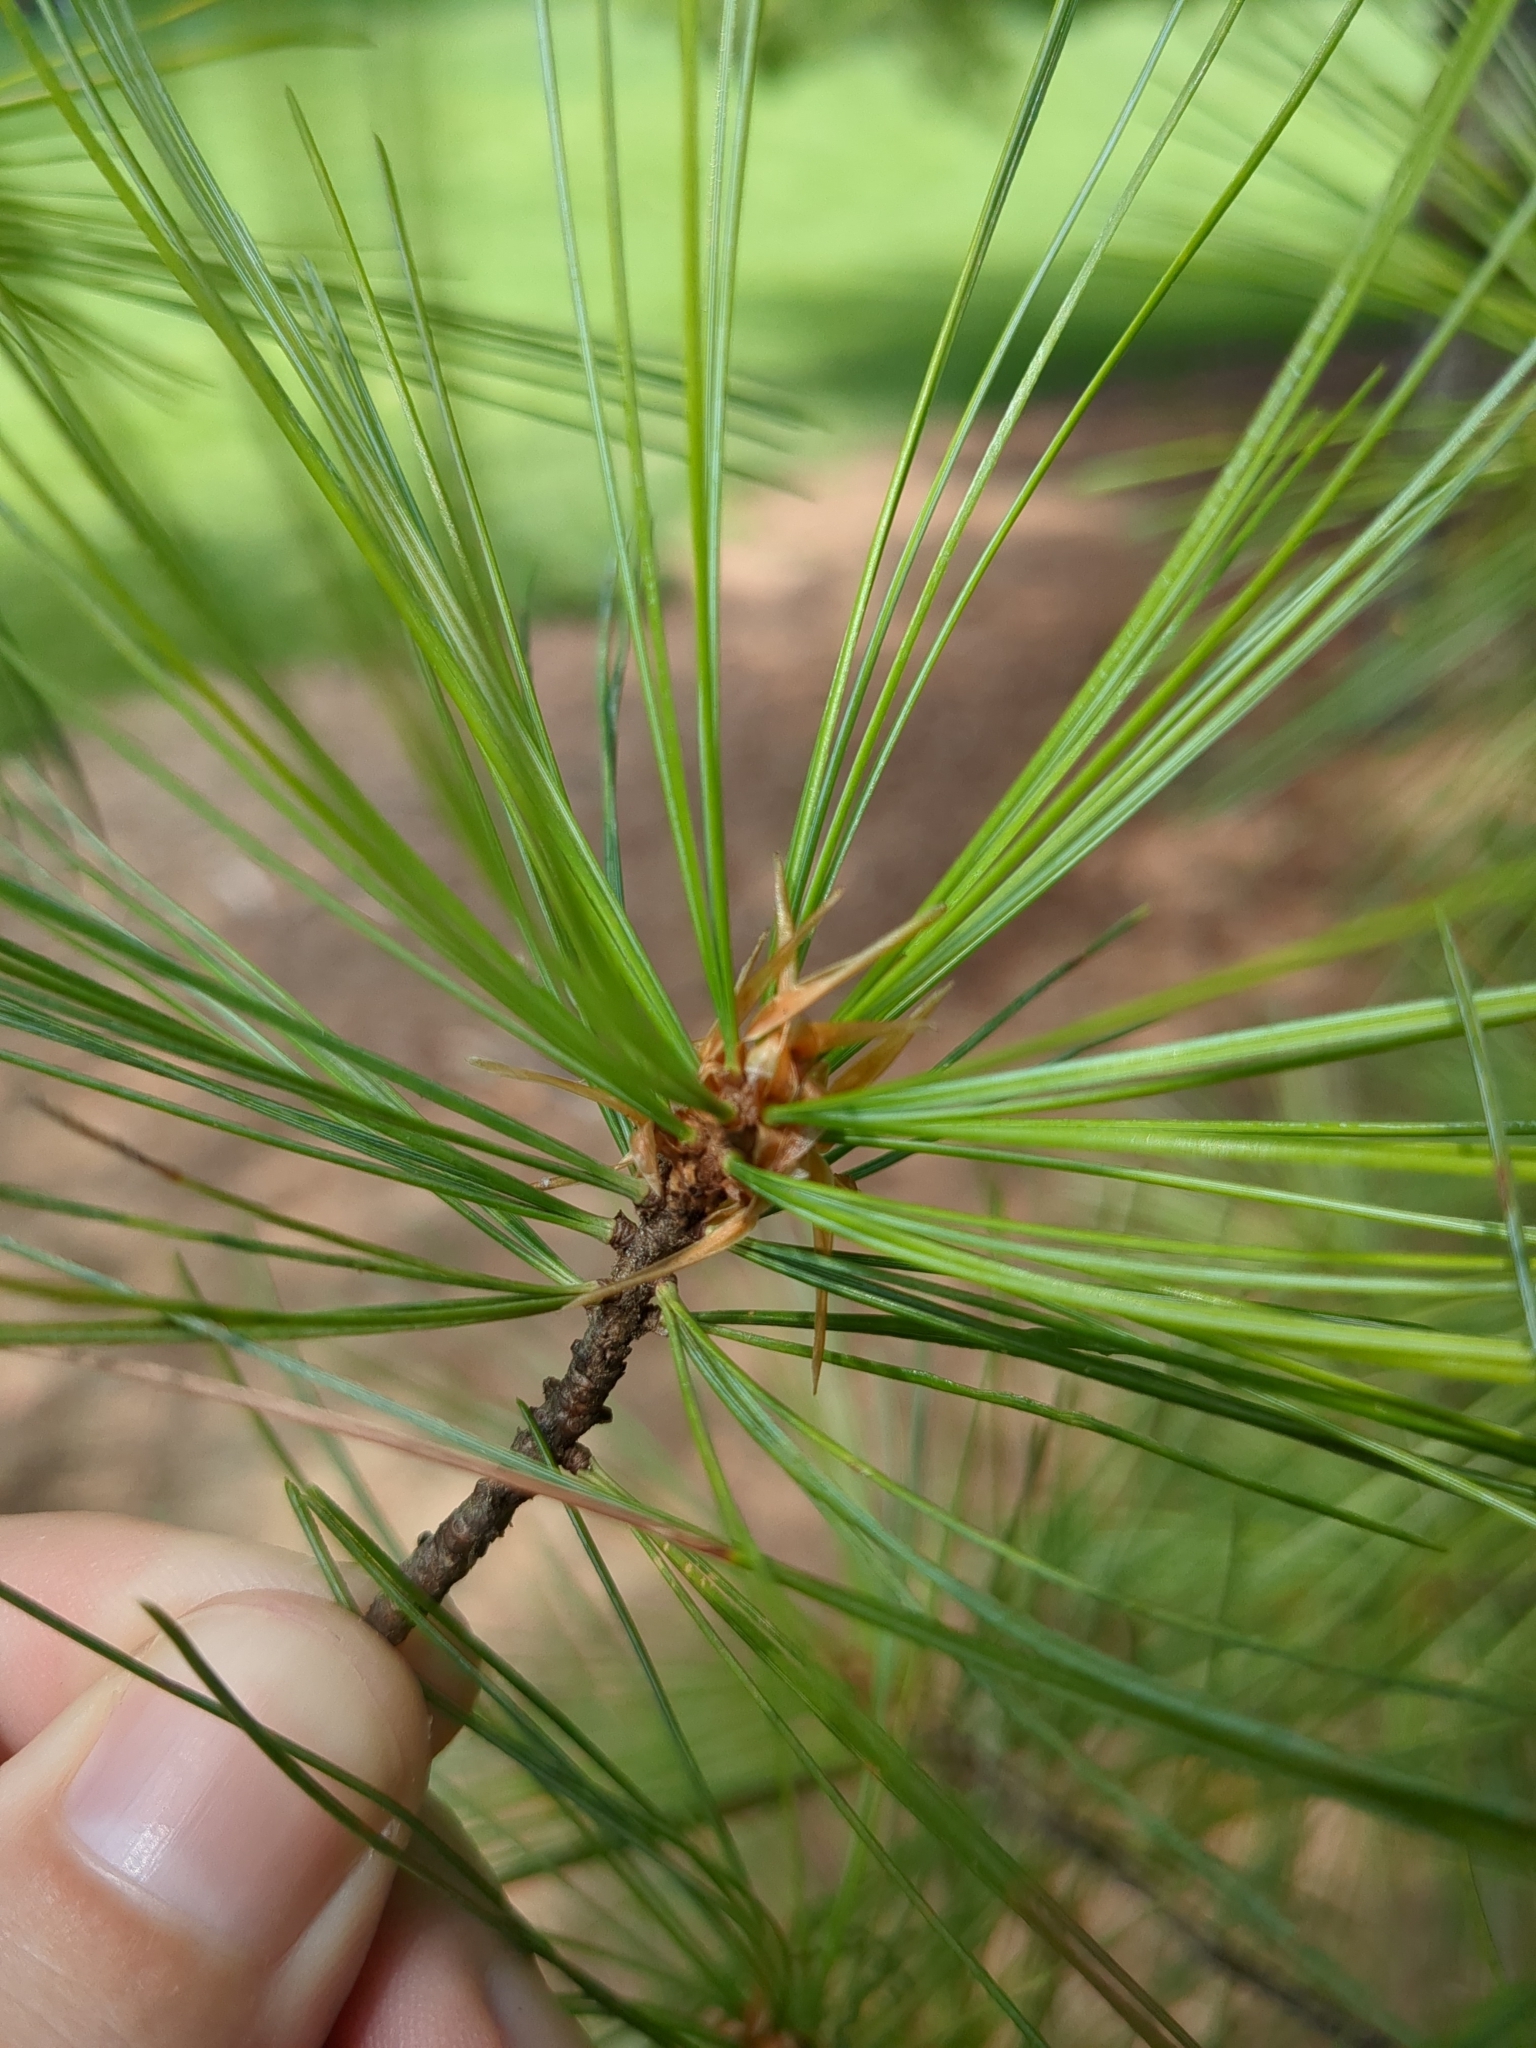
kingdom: Plantae
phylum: Tracheophyta
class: Pinopsida
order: Pinales
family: Pinaceae
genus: Pinus
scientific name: Pinus strobus
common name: Weymouth pine
